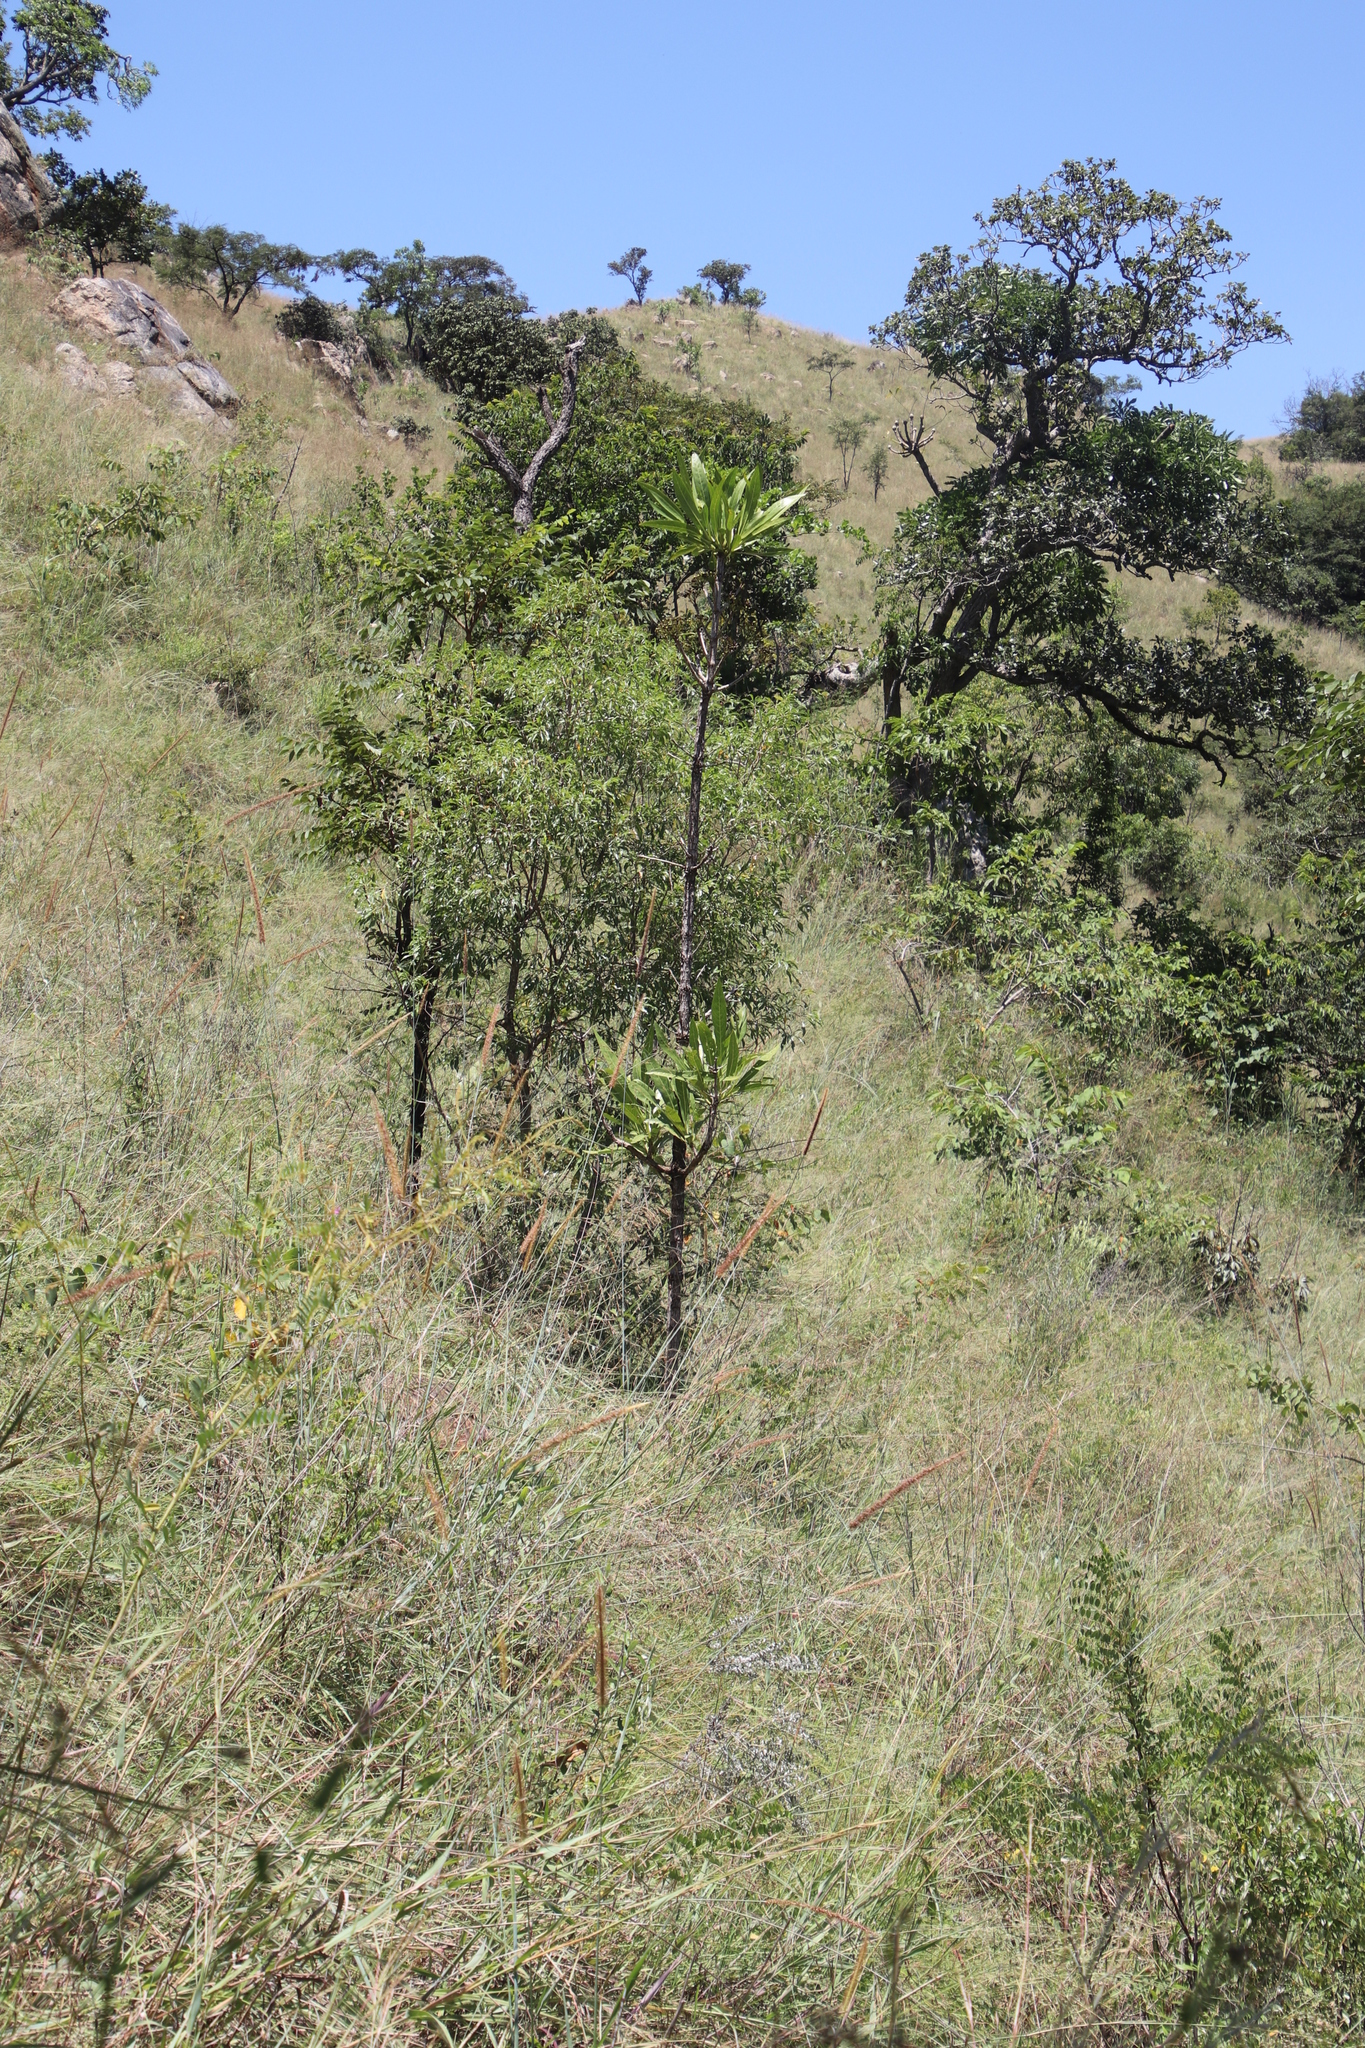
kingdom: Plantae
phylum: Tracheophyta
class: Magnoliopsida
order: Gentianales
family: Rubiaceae
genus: Pavetta
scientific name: Pavetta edentula
